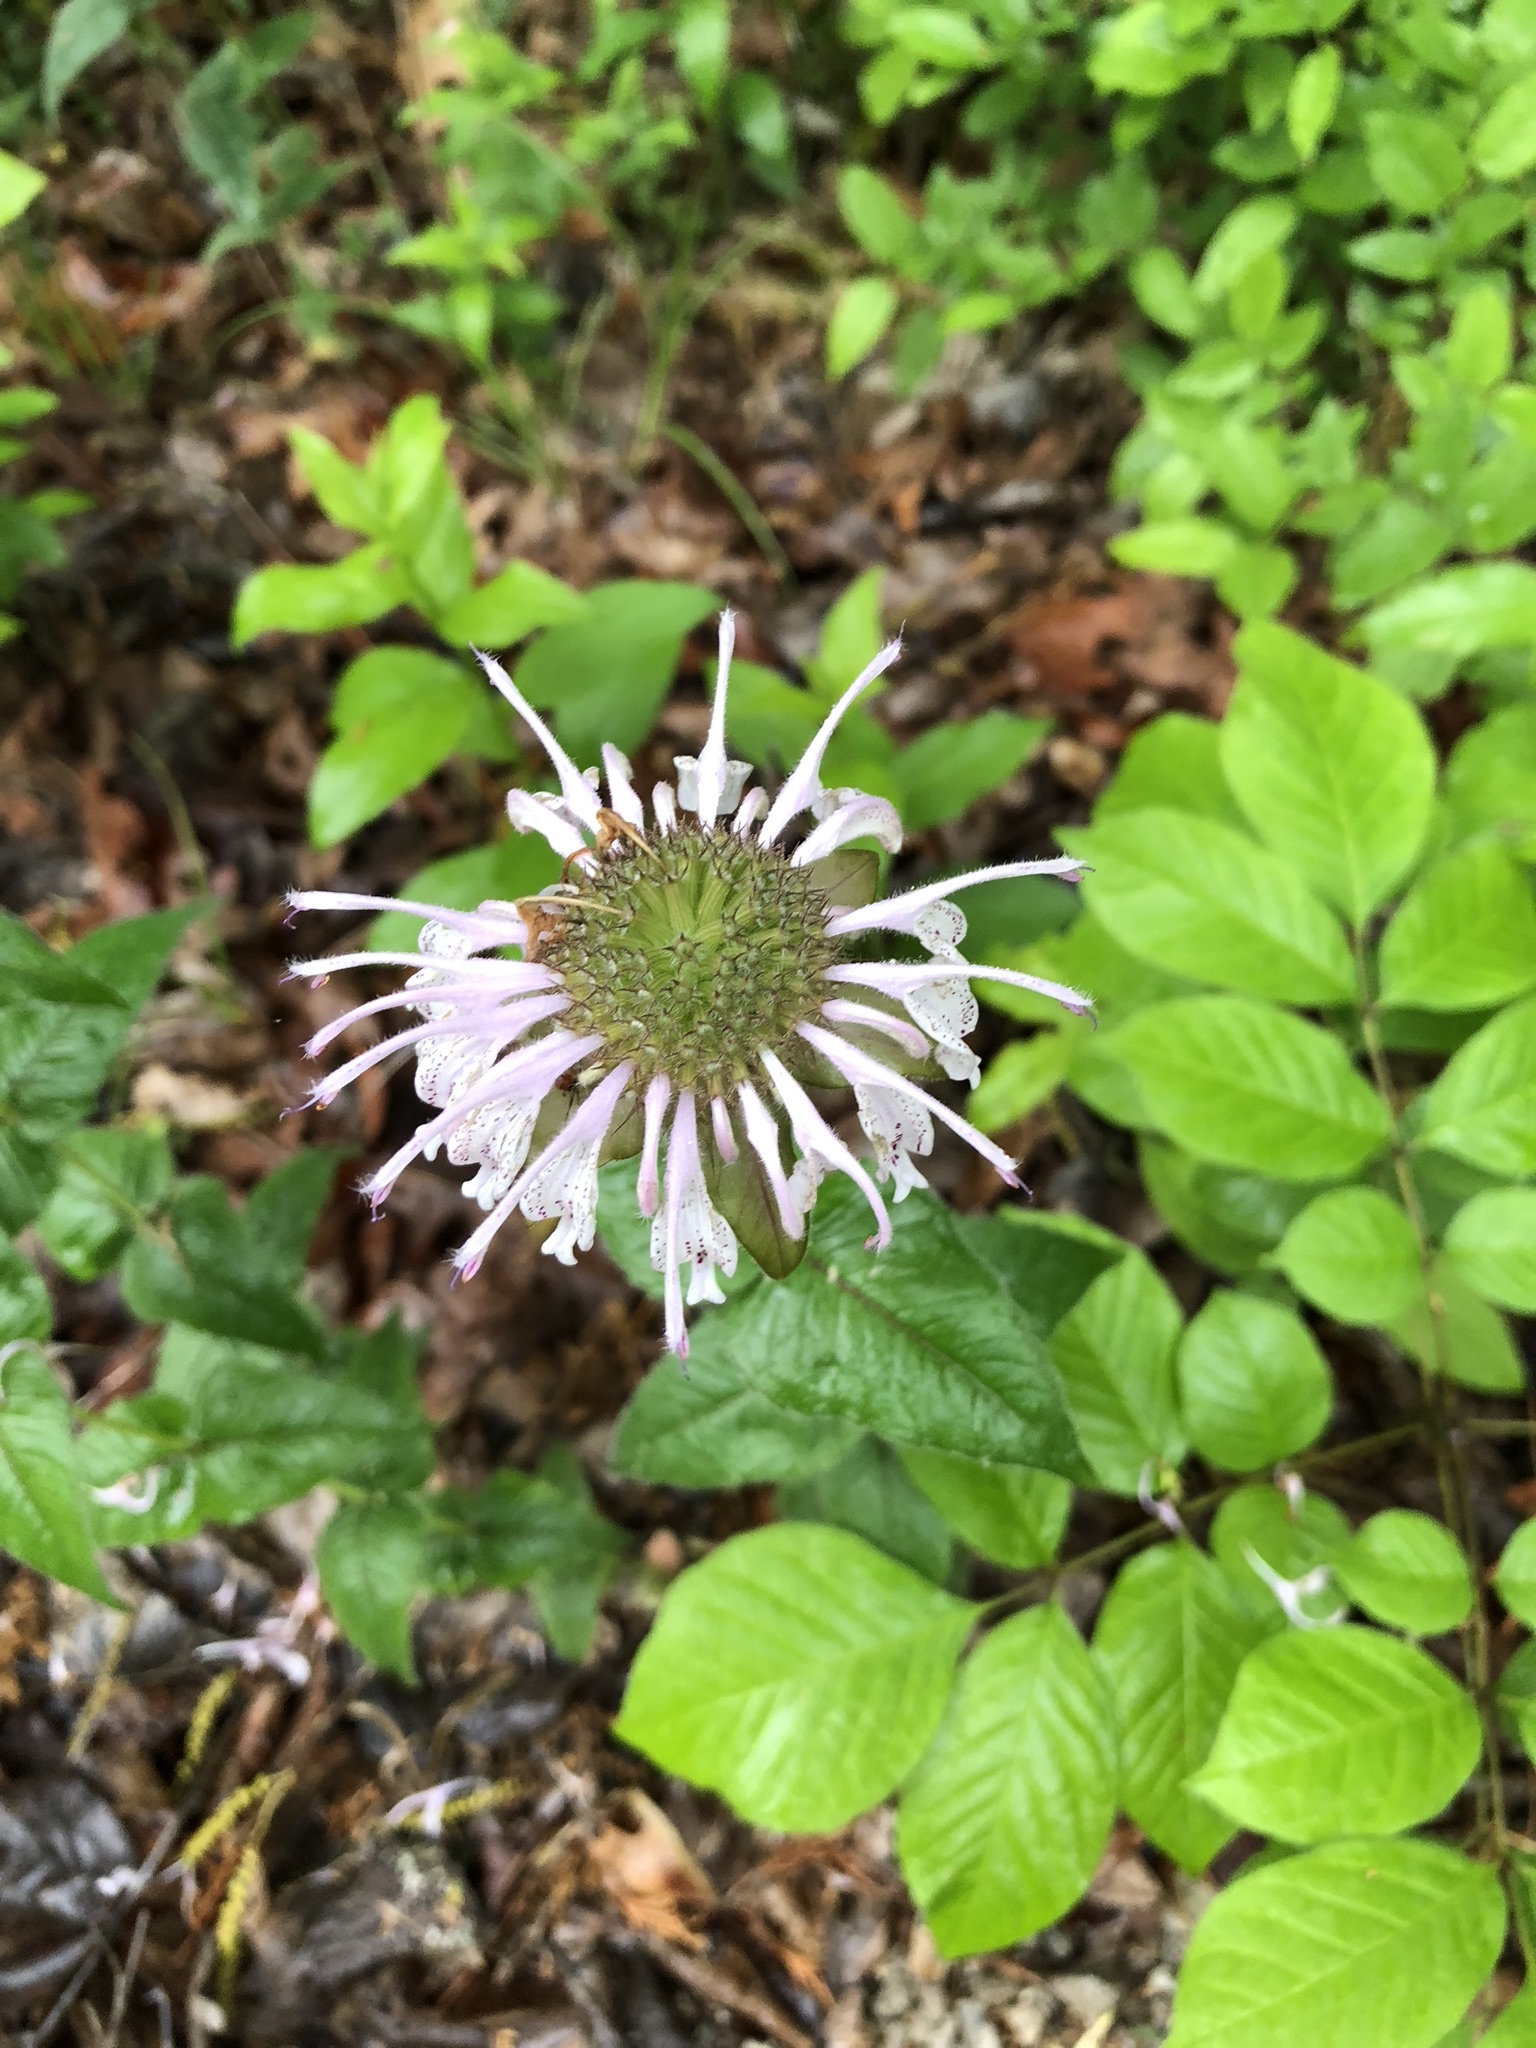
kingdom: Plantae
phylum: Tracheophyta
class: Magnoliopsida
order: Lamiales
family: Lamiaceae
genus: Monarda
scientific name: Monarda bradburiana
